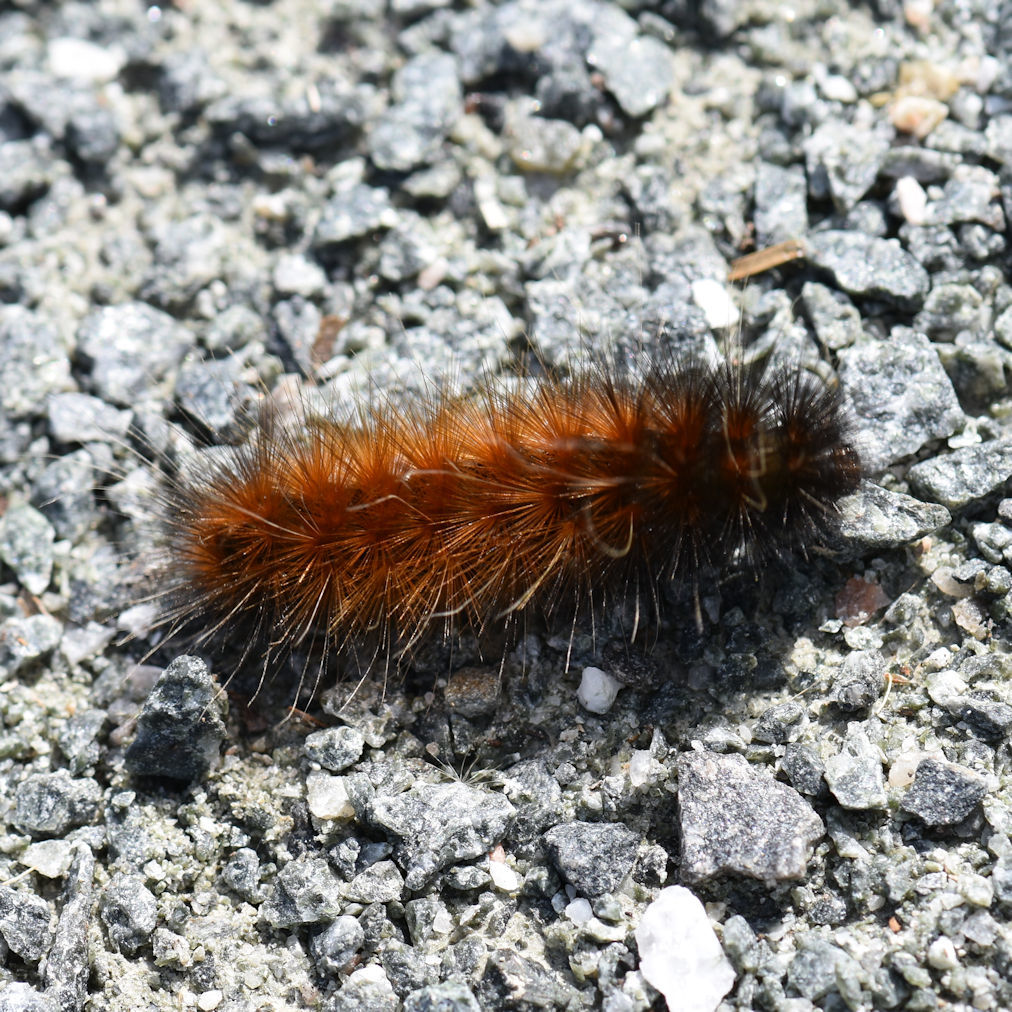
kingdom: Animalia
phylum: Arthropoda
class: Insecta
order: Lepidoptera
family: Erebidae
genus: Pyrrharctia
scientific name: Pyrrharctia isabella
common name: Isabella tiger moth
